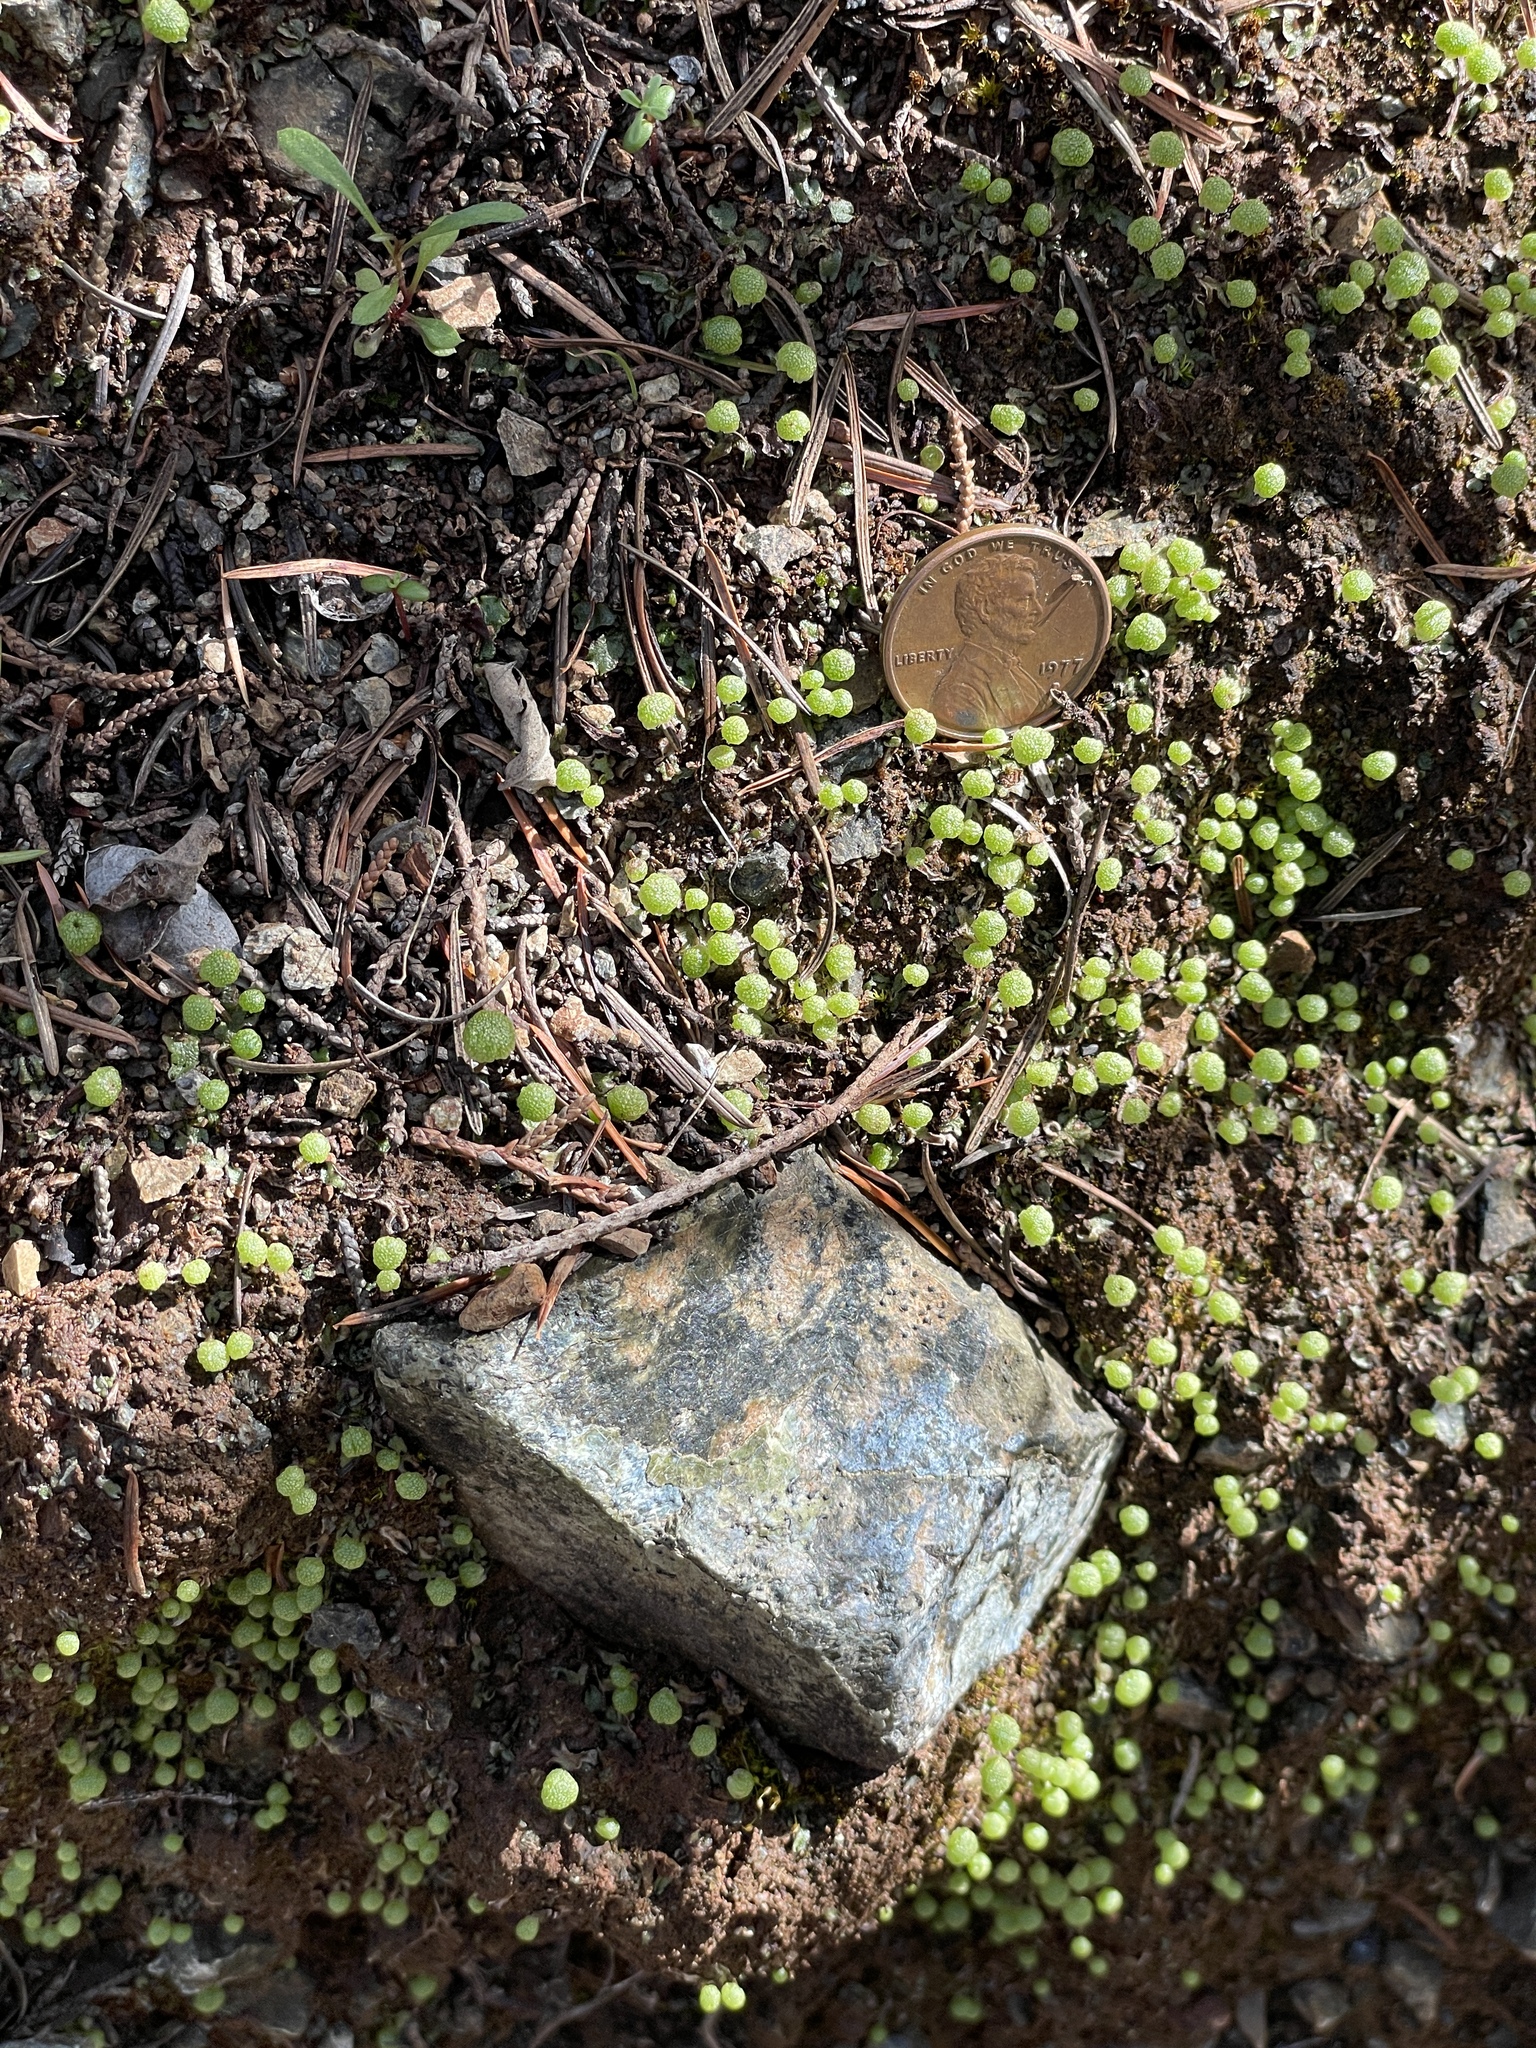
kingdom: Plantae
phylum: Marchantiophyta
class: Marchantiopsida
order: Marchantiales
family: Aytoniaceae
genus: Asterella
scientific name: Asterella palmeri
